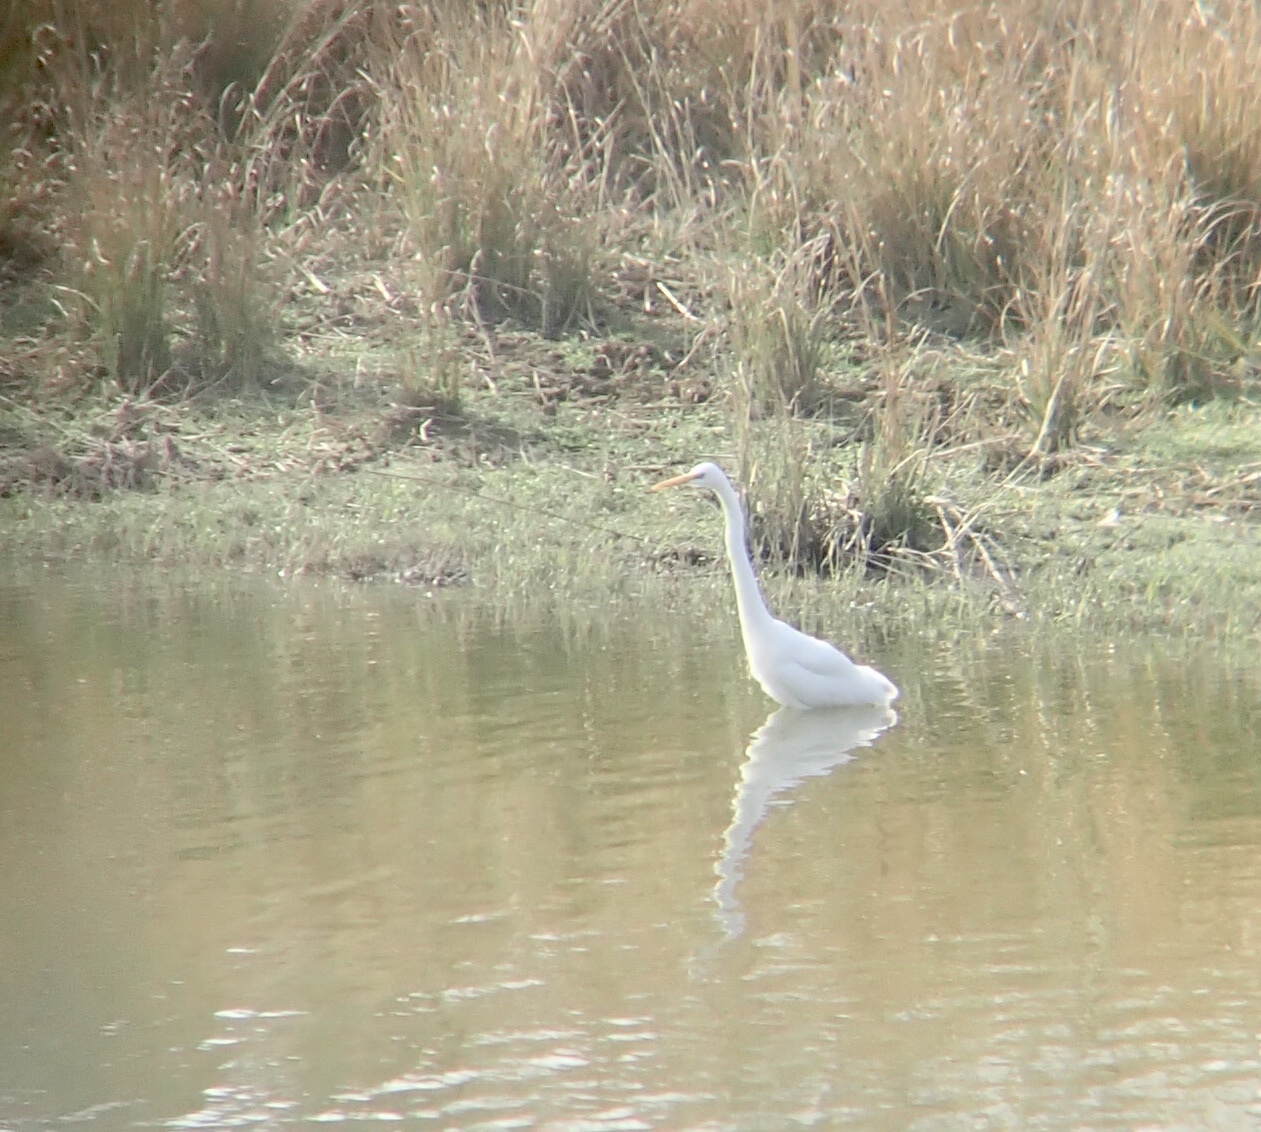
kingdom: Animalia
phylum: Chordata
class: Aves
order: Pelecaniformes
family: Ardeidae
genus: Ardea
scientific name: Ardea alba
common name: Great egret
